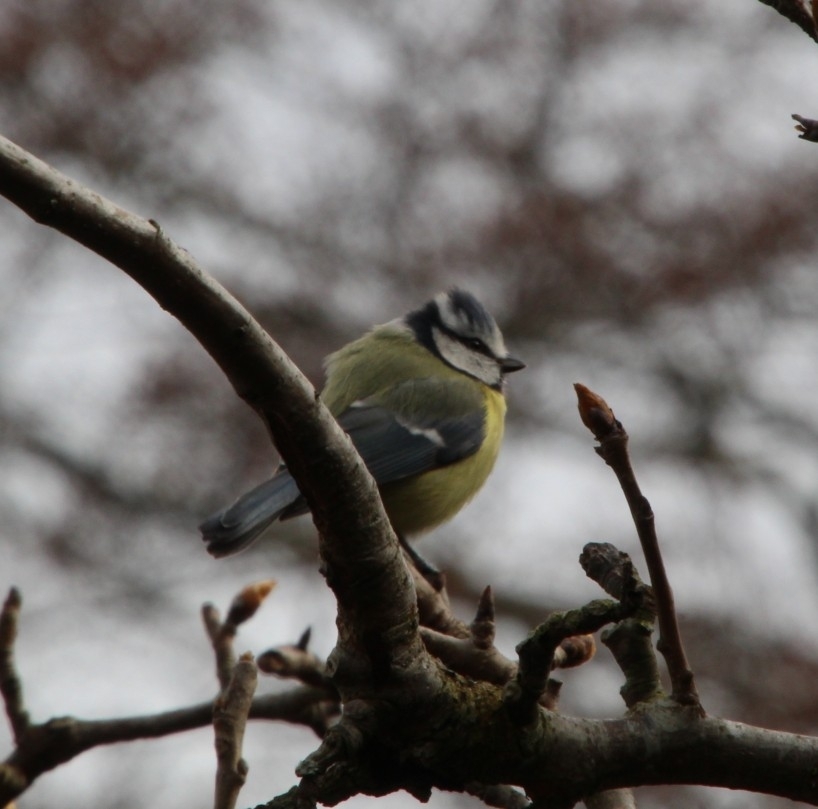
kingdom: Animalia
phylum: Chordata
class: Aves
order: Passeriformes
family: Paridae
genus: Cyanistes
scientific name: Cyanistes caeruleus
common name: Eurasian blue tit
